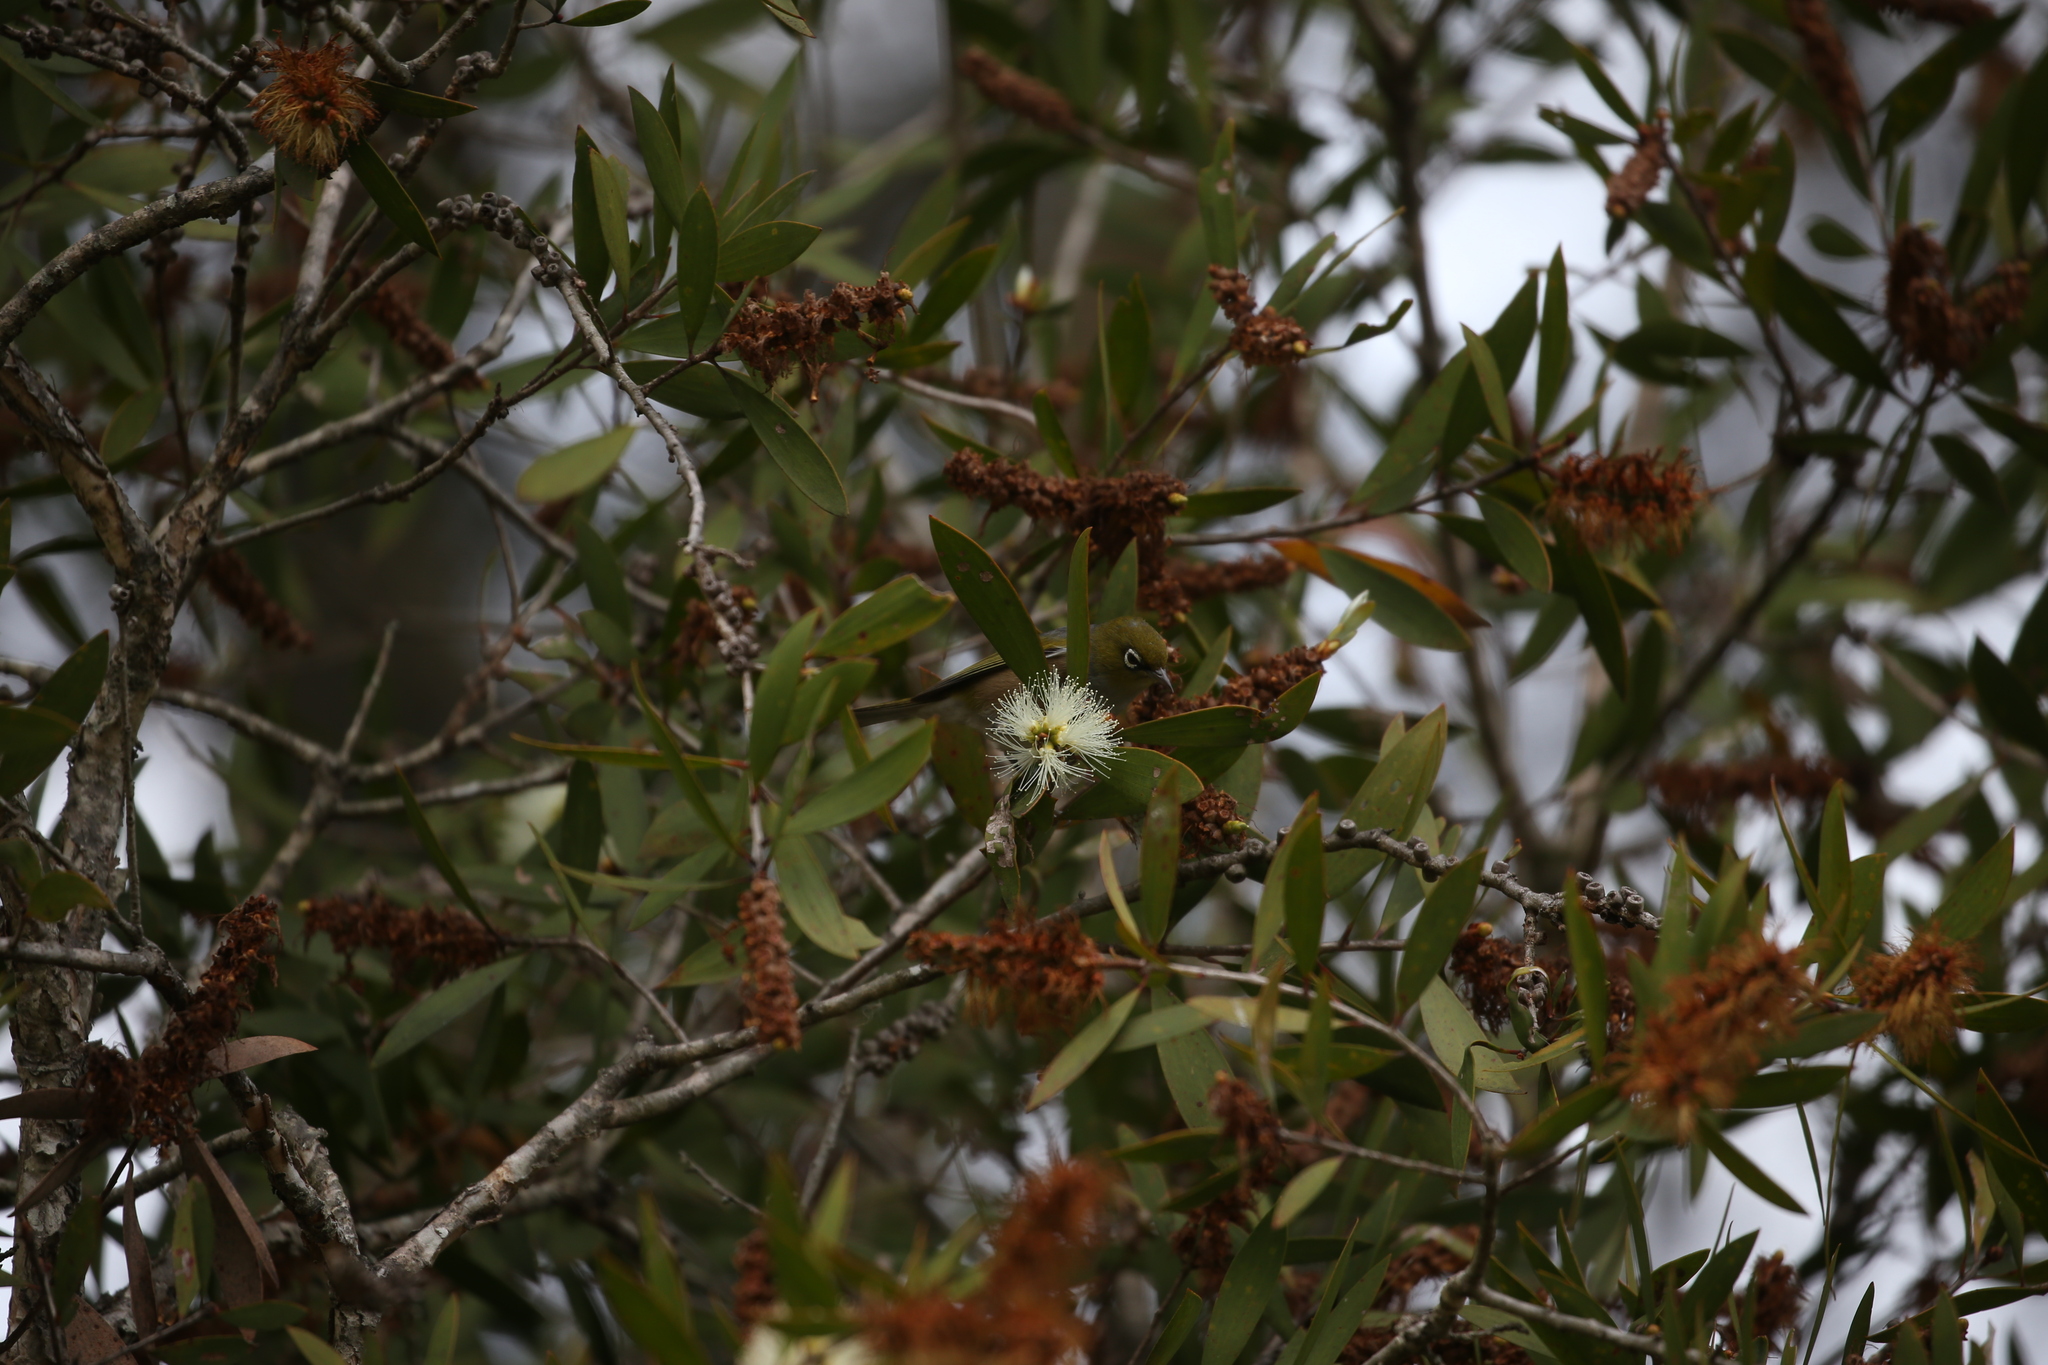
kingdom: Animalia
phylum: Chordata
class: Aves
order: Passeriformes
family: Zosteropidae
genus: Zosterops
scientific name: Zosterops lateralis
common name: Silvereye
